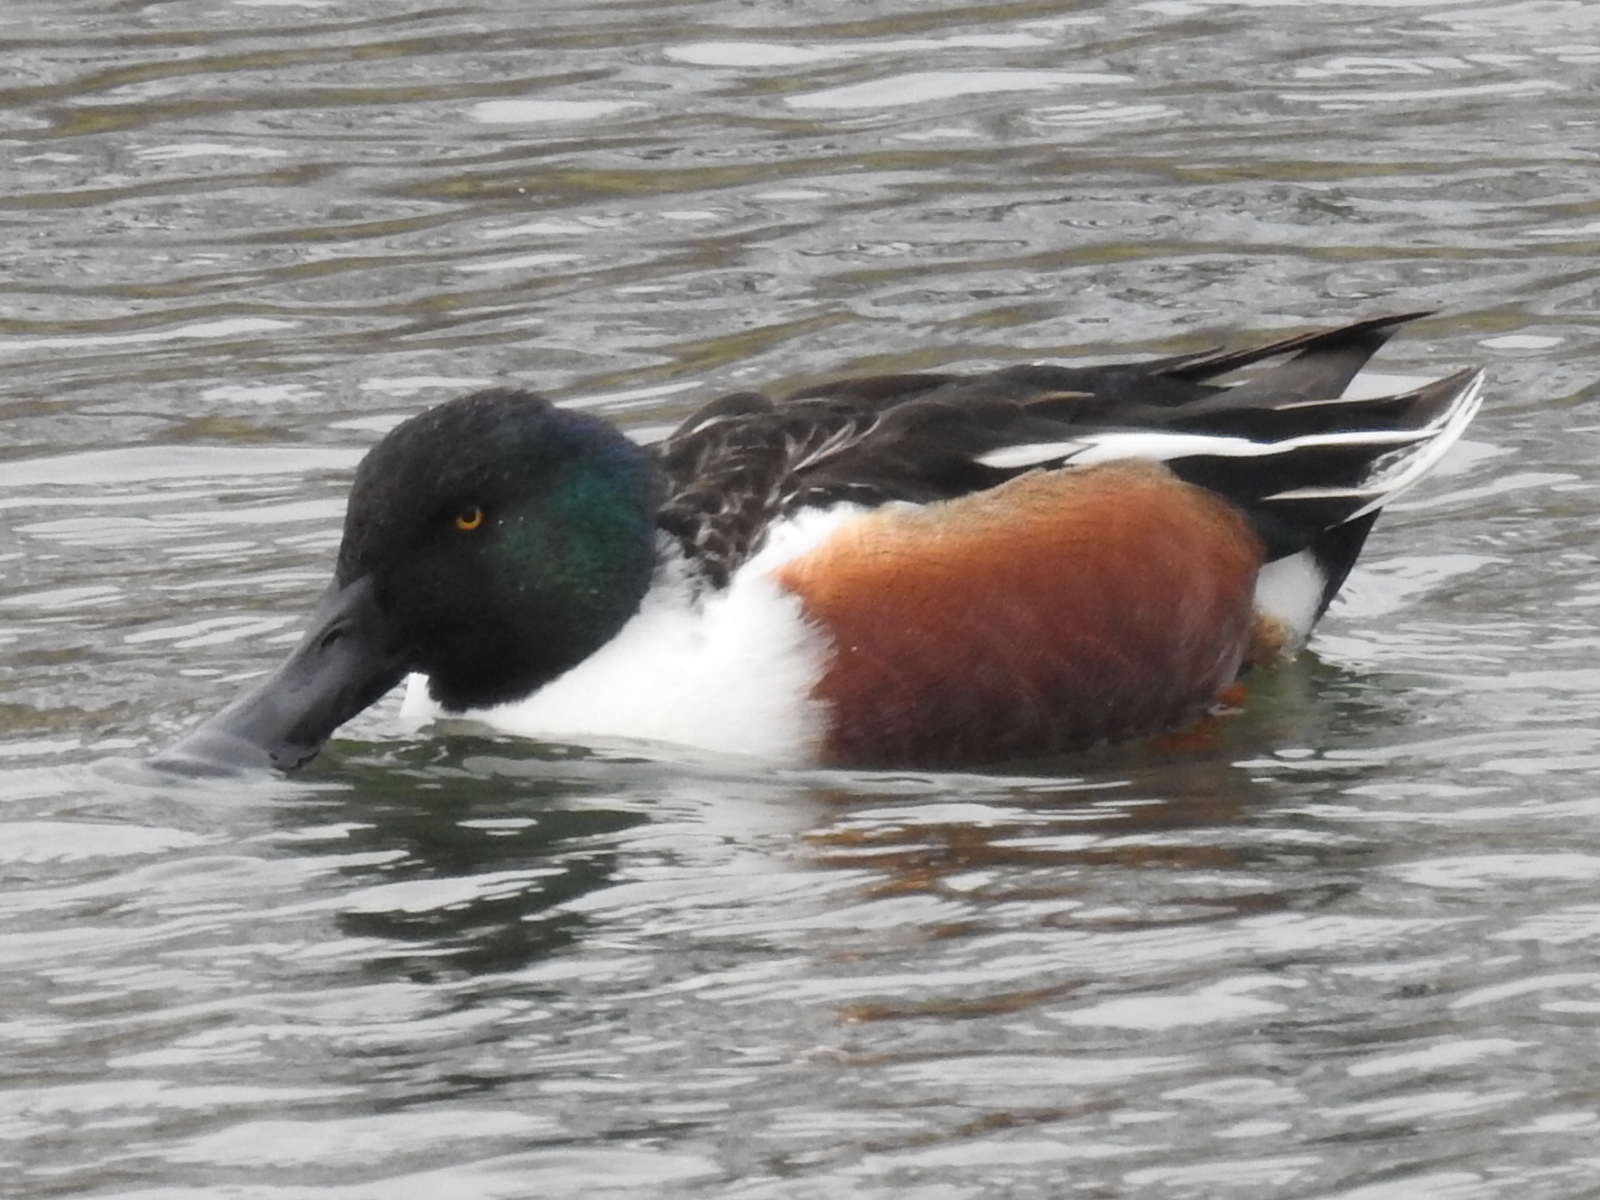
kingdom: Animalia
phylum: Chordata
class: Aves
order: Anseriformes
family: Anatidae
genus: Spatula
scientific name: Spatula clypeata
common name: Northern shoveler
